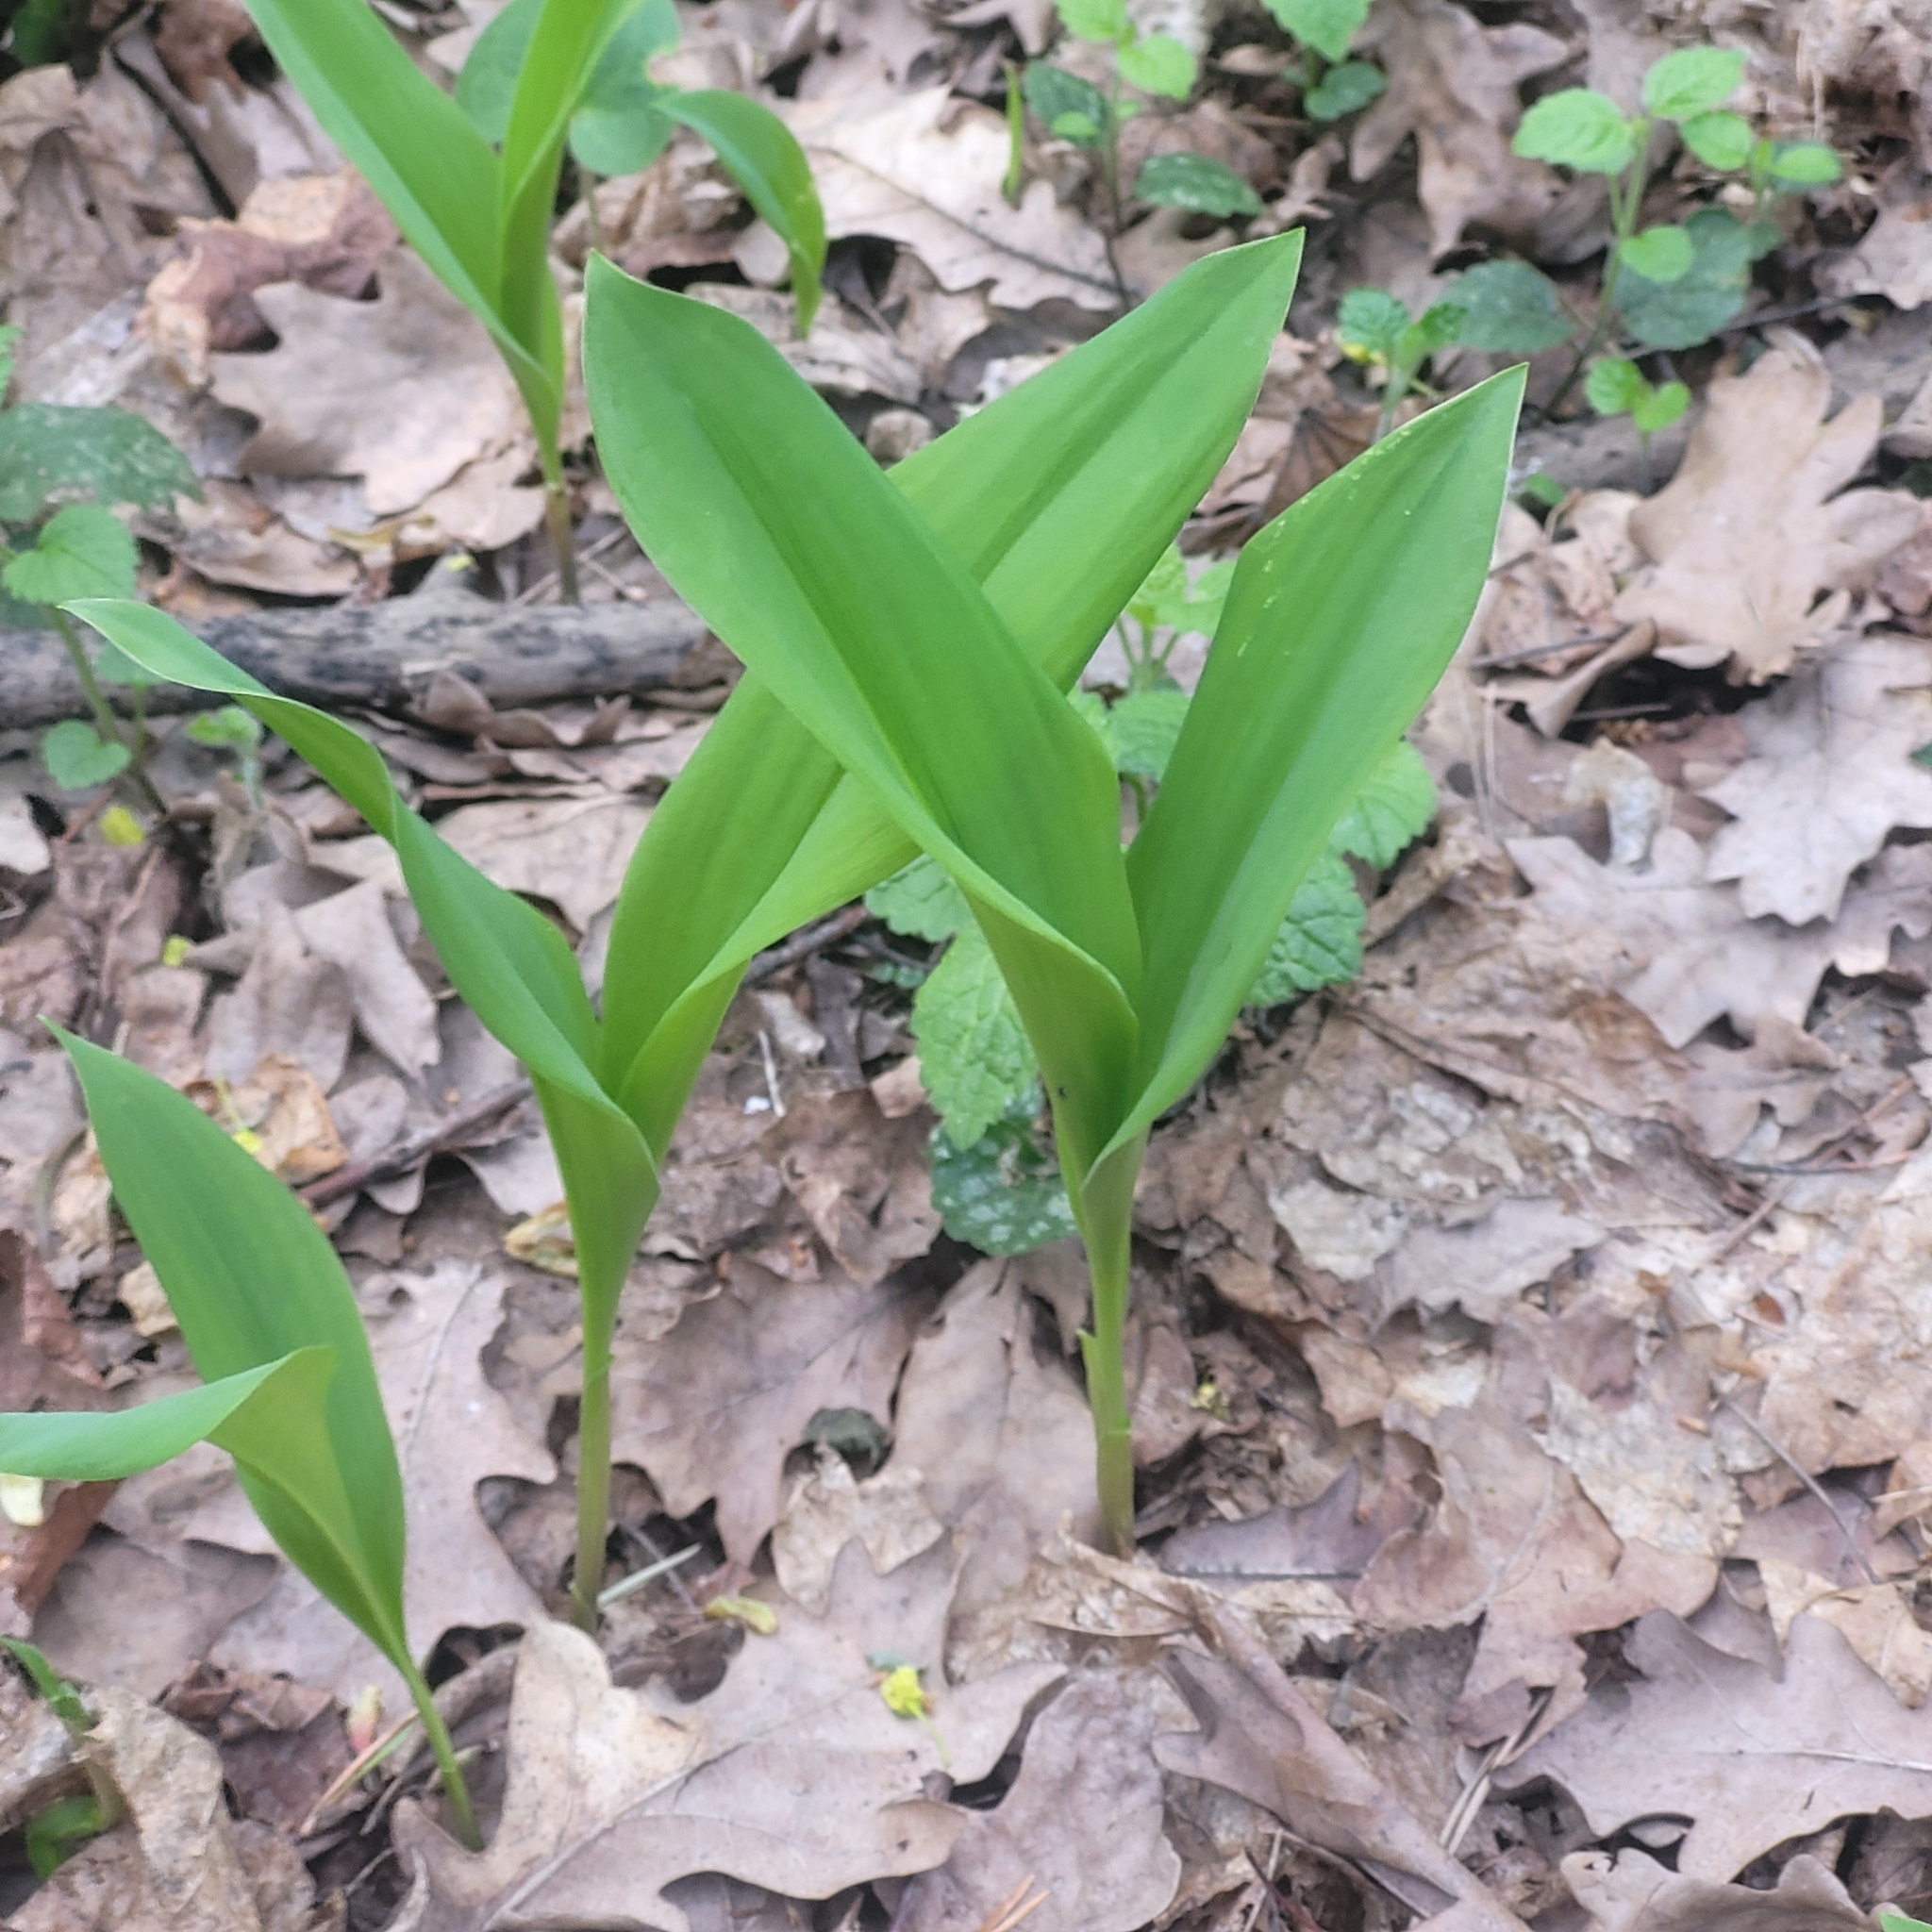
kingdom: Plantae
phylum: Tracheophyta
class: Liliopsida
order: Asparagales
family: Asparagaceae
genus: Convallaria
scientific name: Convallaria majalis
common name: Lily-of-the-valley
